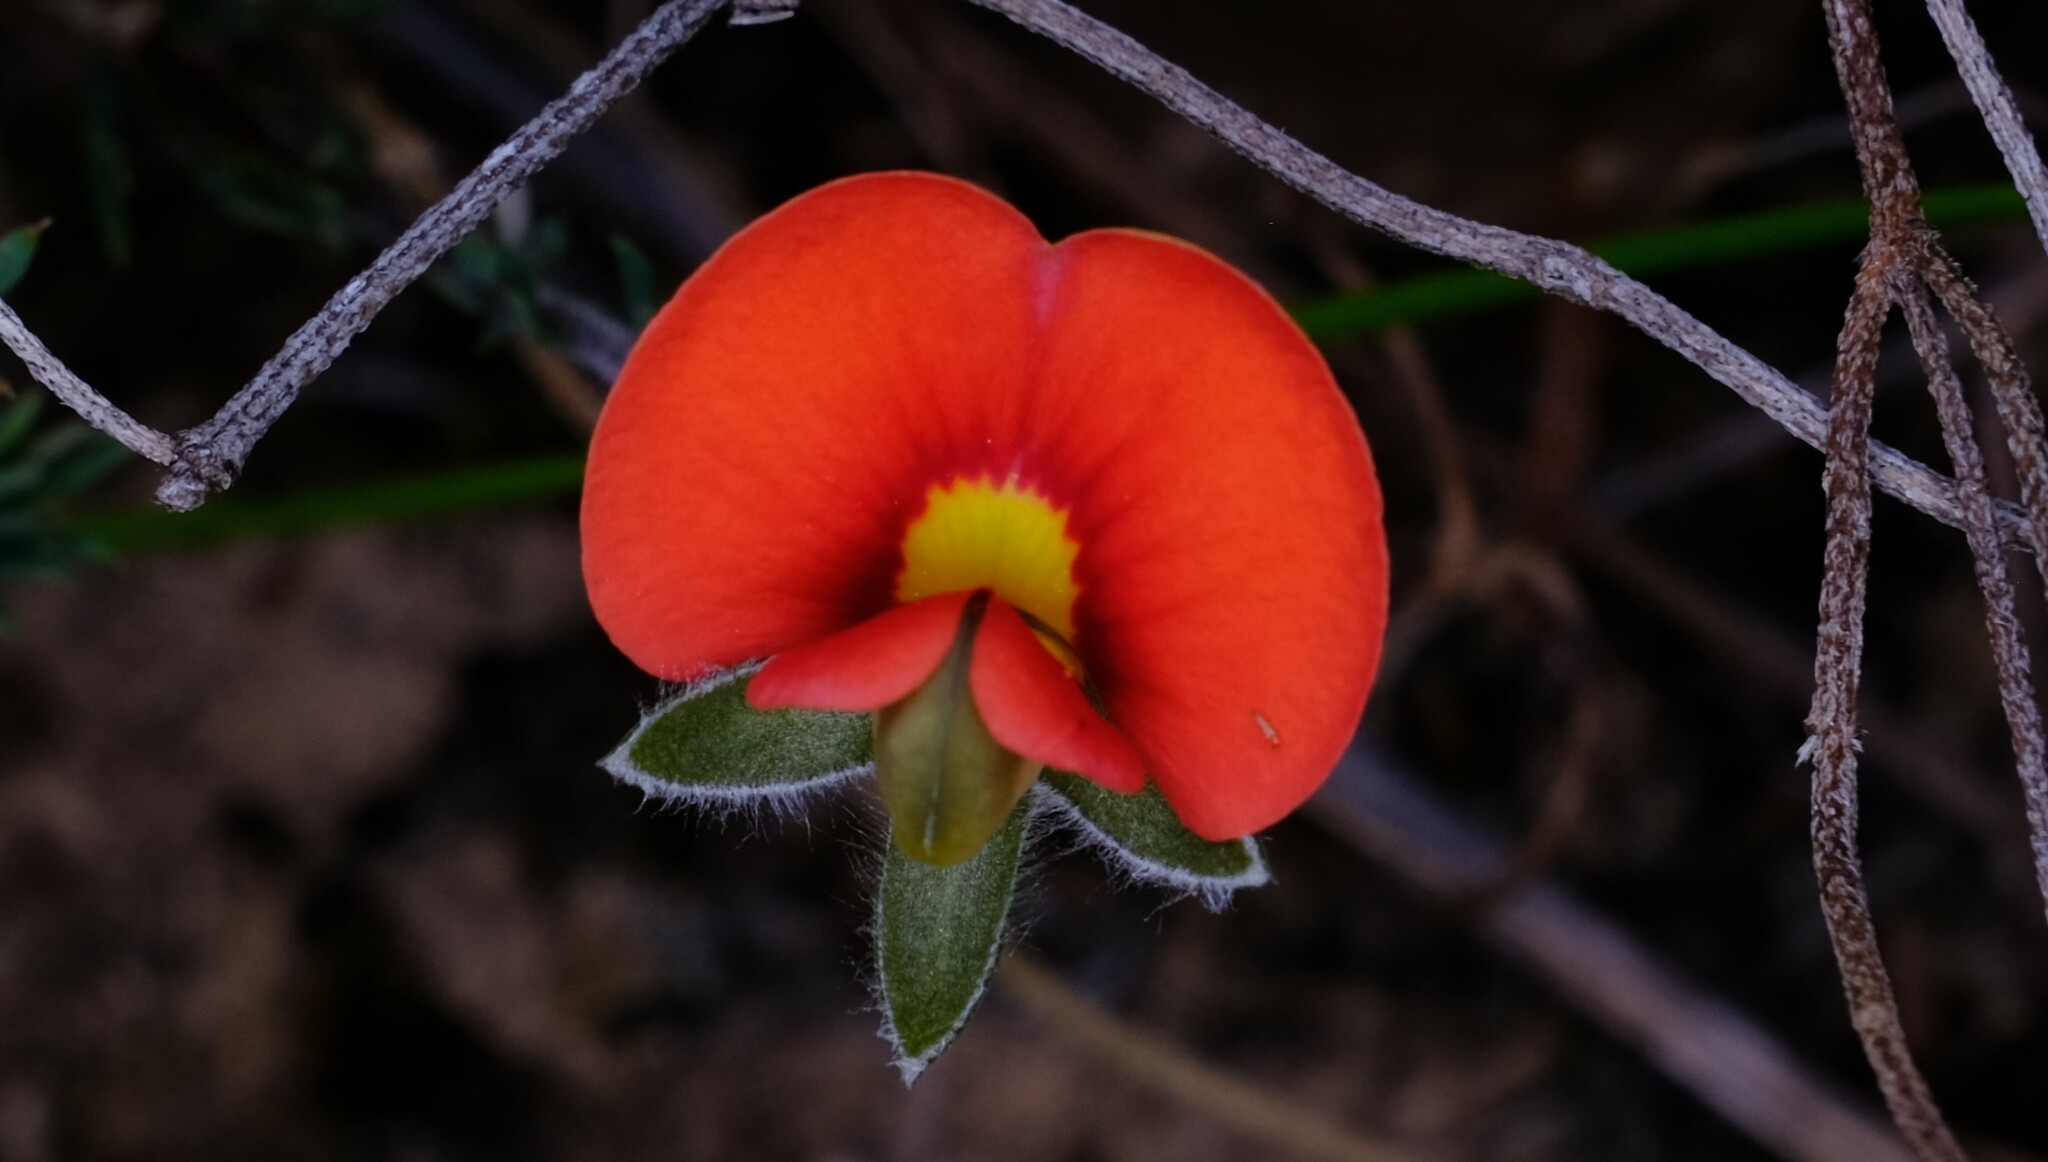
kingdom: Plantae
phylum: Tracheophyta
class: Magnoliopsida
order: Fabales
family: Fabaceae
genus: Gompholobium
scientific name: Gompholobium ecostatum
